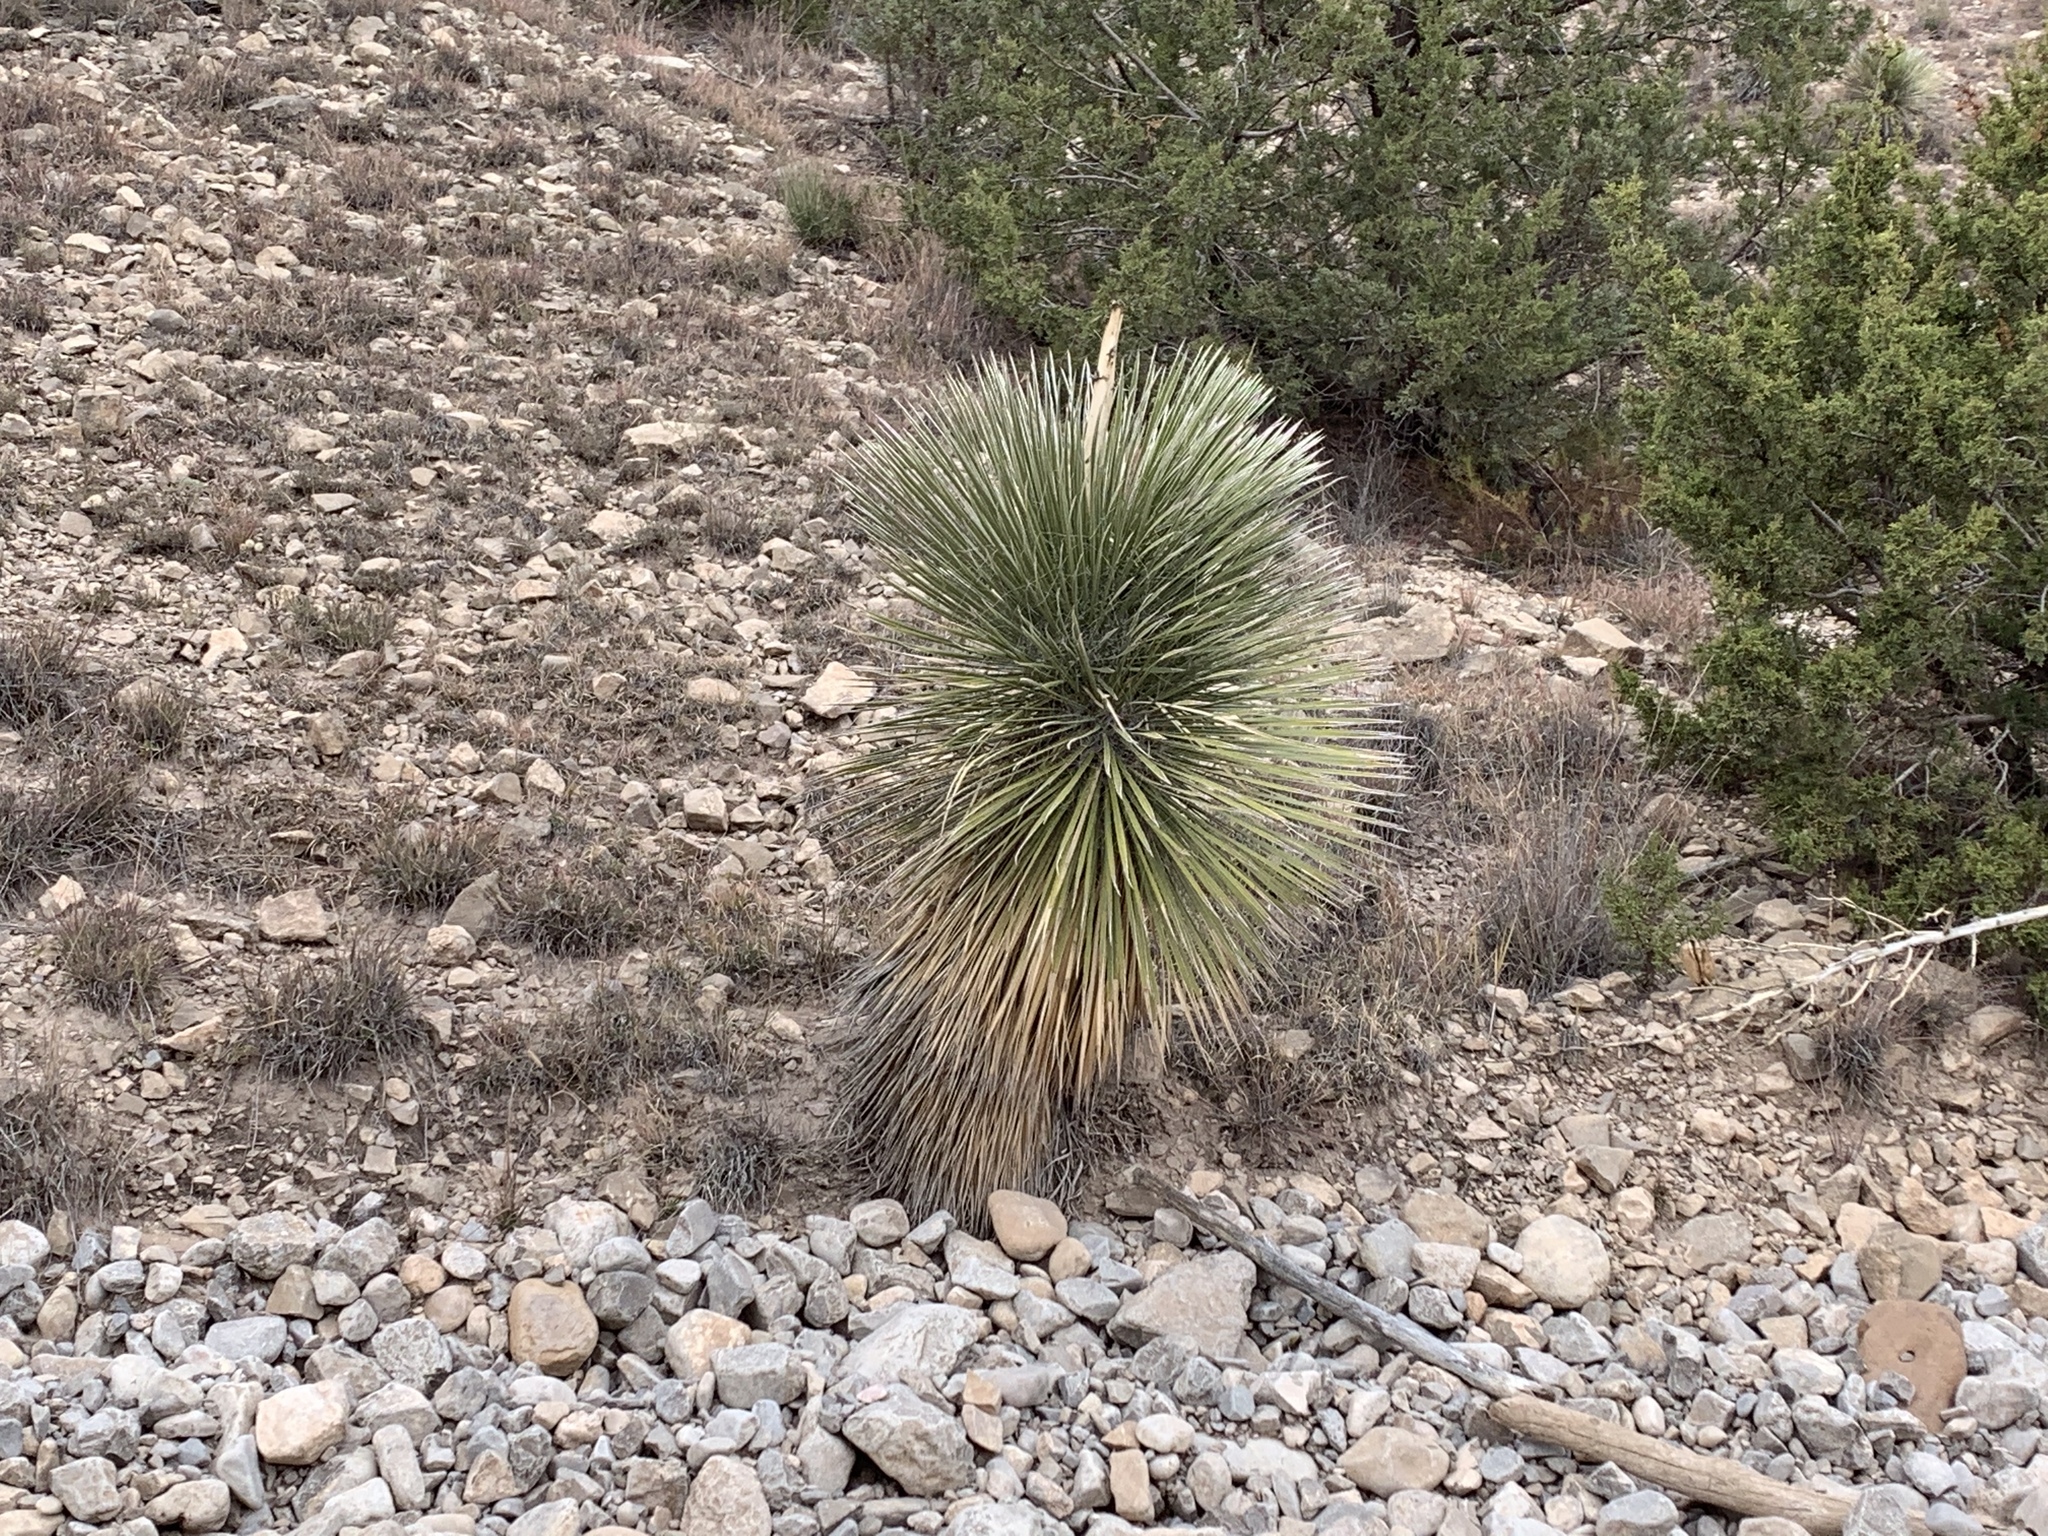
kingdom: Plantae
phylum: Tracheophyta
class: Liliopsida
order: Asparagales
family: Asparagaceae
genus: Yucca
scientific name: Yucca elata
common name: Palmella
